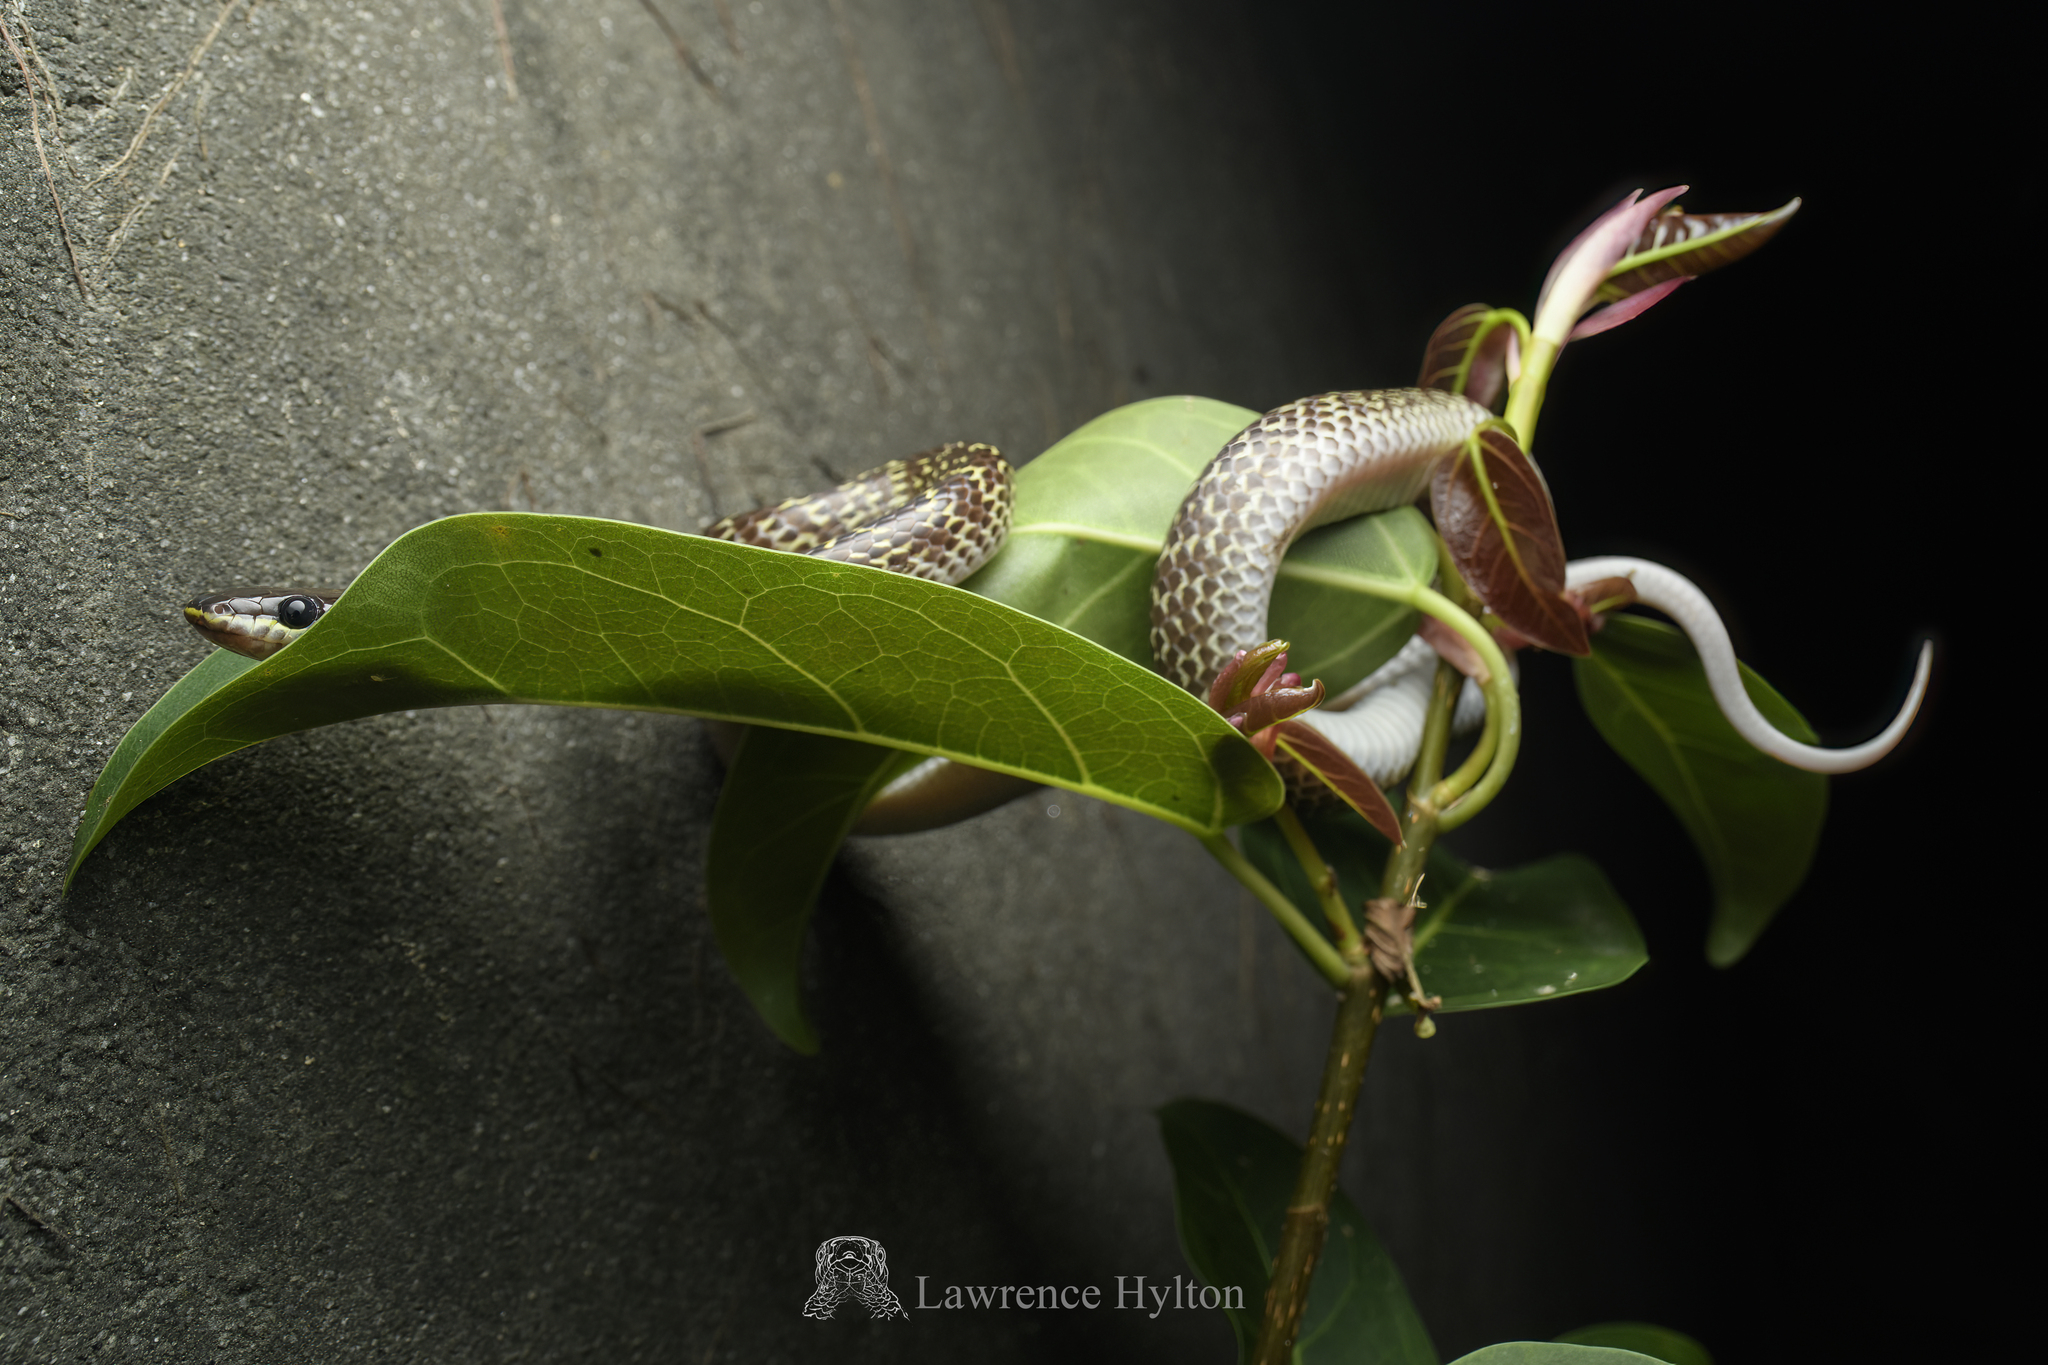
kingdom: Animalia
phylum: Chordata
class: Squamata
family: Colubridae
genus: Lycodon
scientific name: Lycodon capucinus
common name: Common wold snake/house snake
